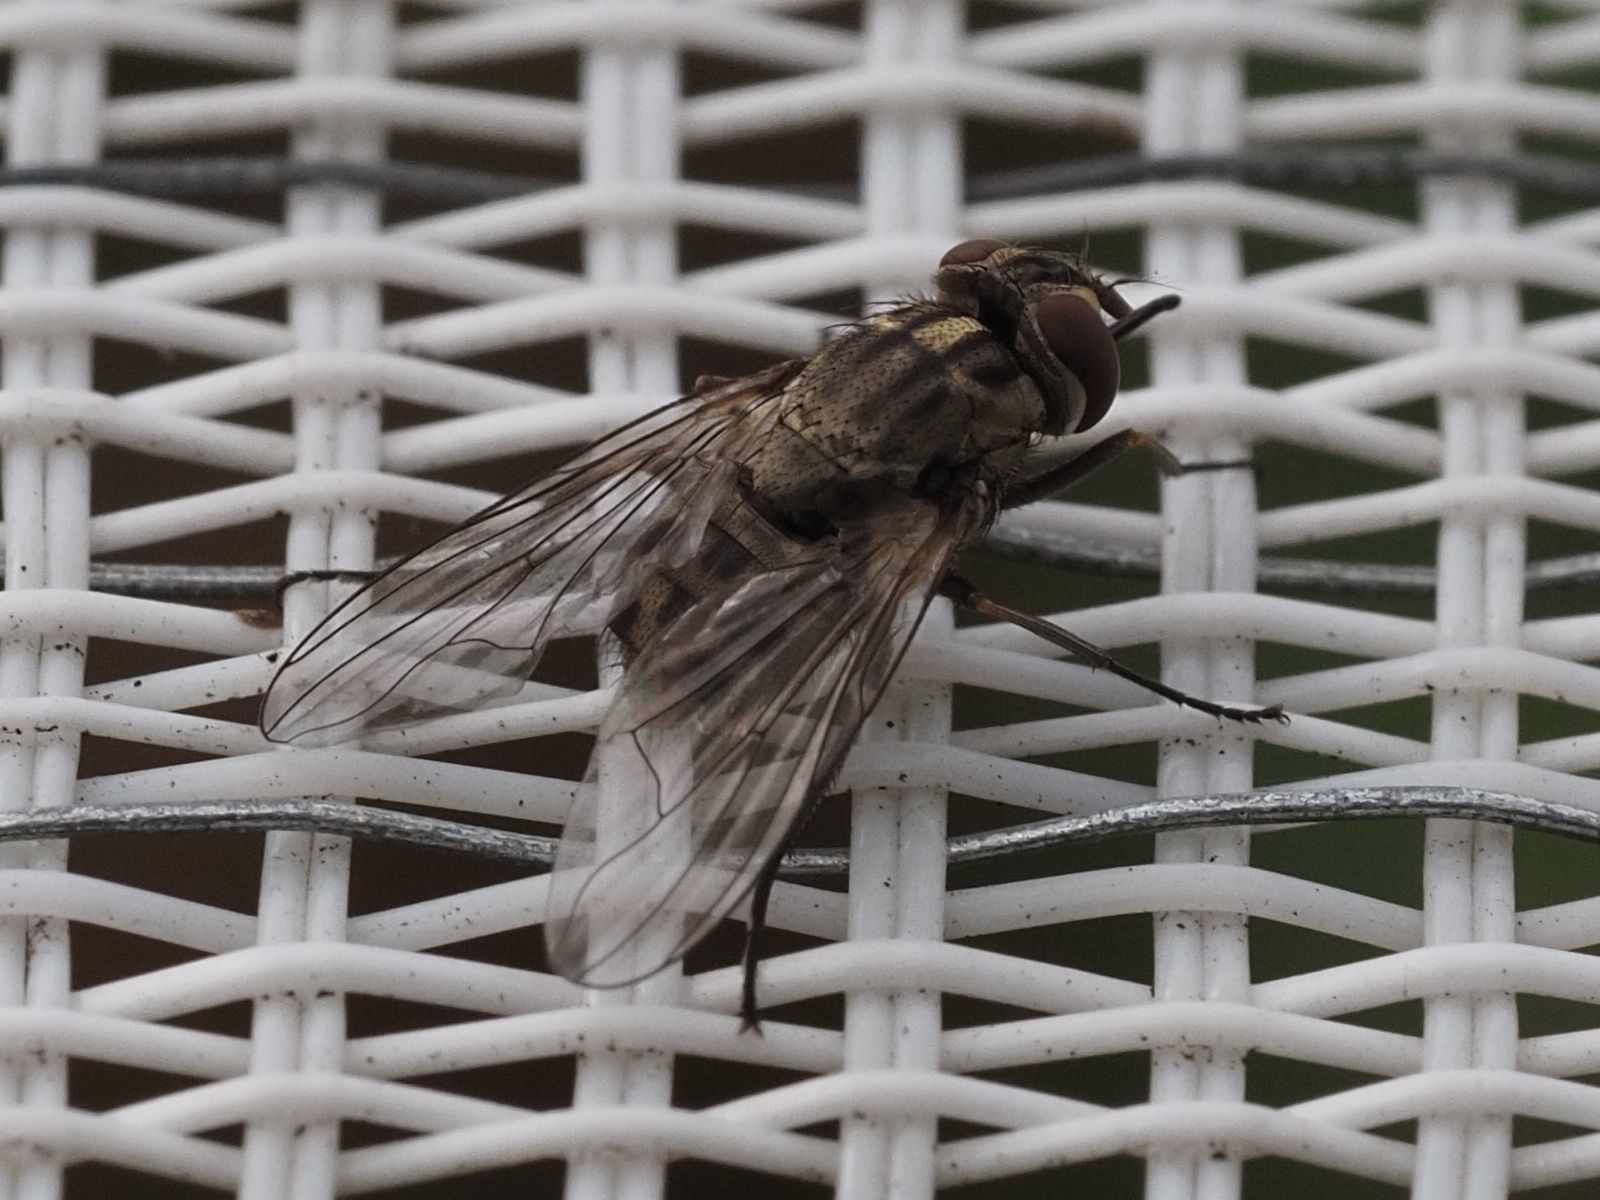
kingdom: Animalia
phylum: Arthropoda
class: Insecta
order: Diptera
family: Muscidae
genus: Stomoxys
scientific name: Stomoxys calcitrans
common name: Stable fly
